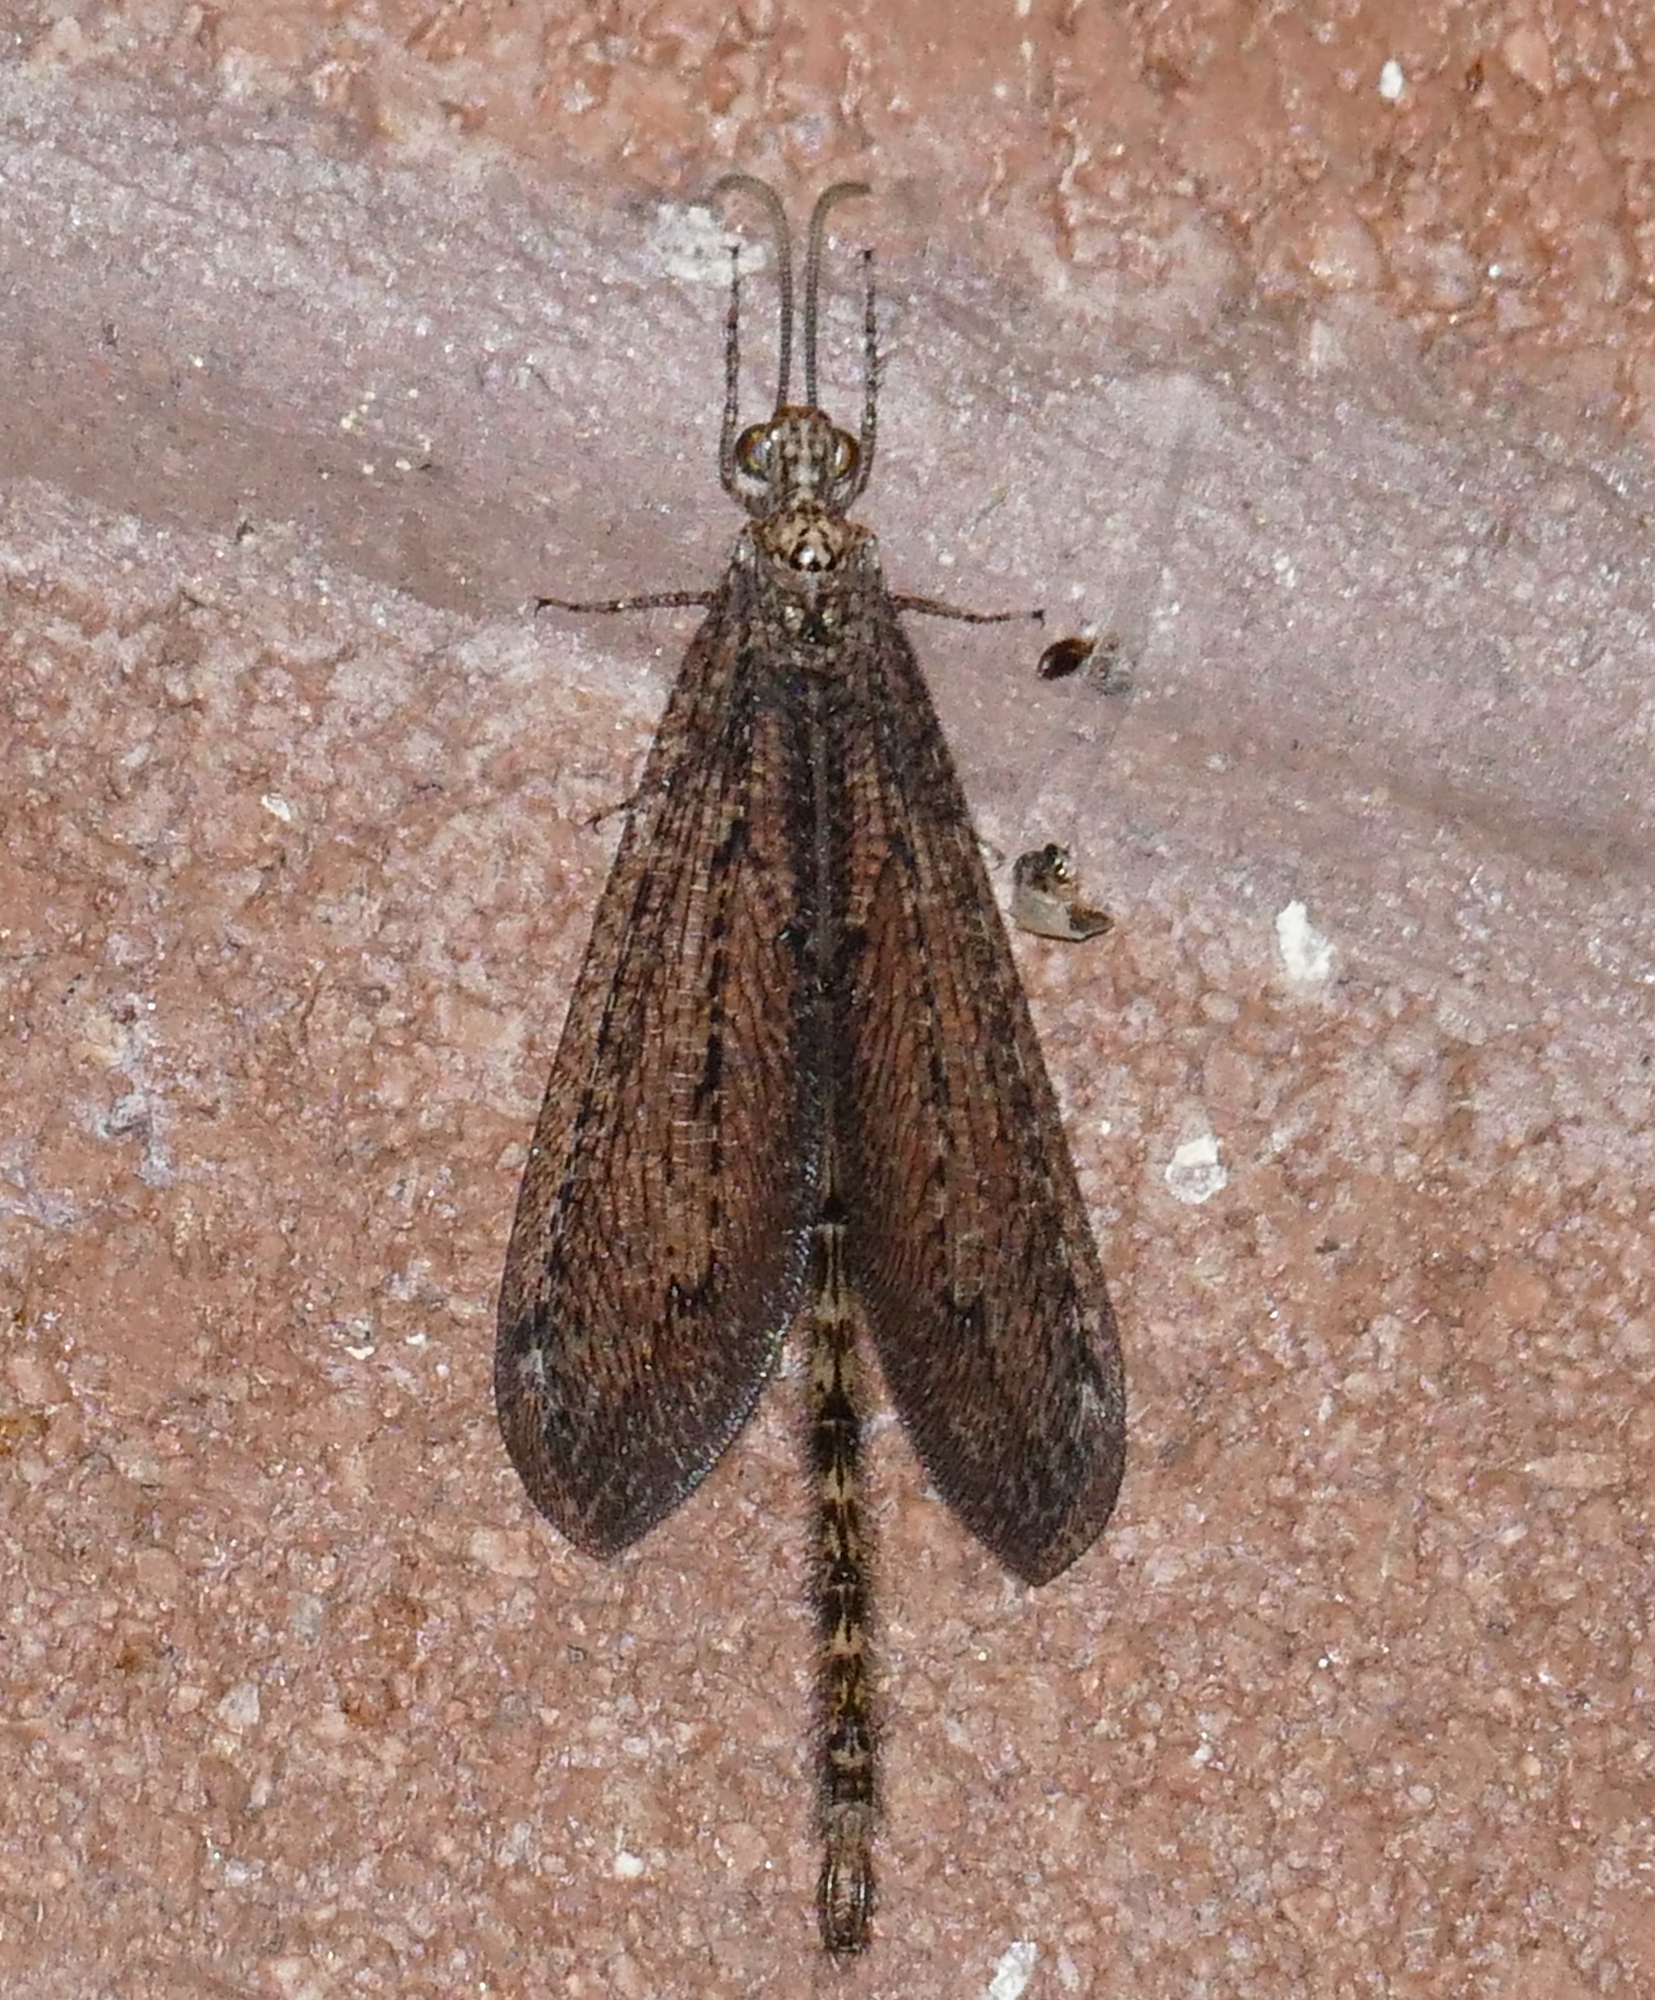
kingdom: Animalia
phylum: Arthropoda
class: Insecta
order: Neuroptera
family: Myrmeleontidae
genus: Brachynemurus
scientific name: Brachynemurus californicus
